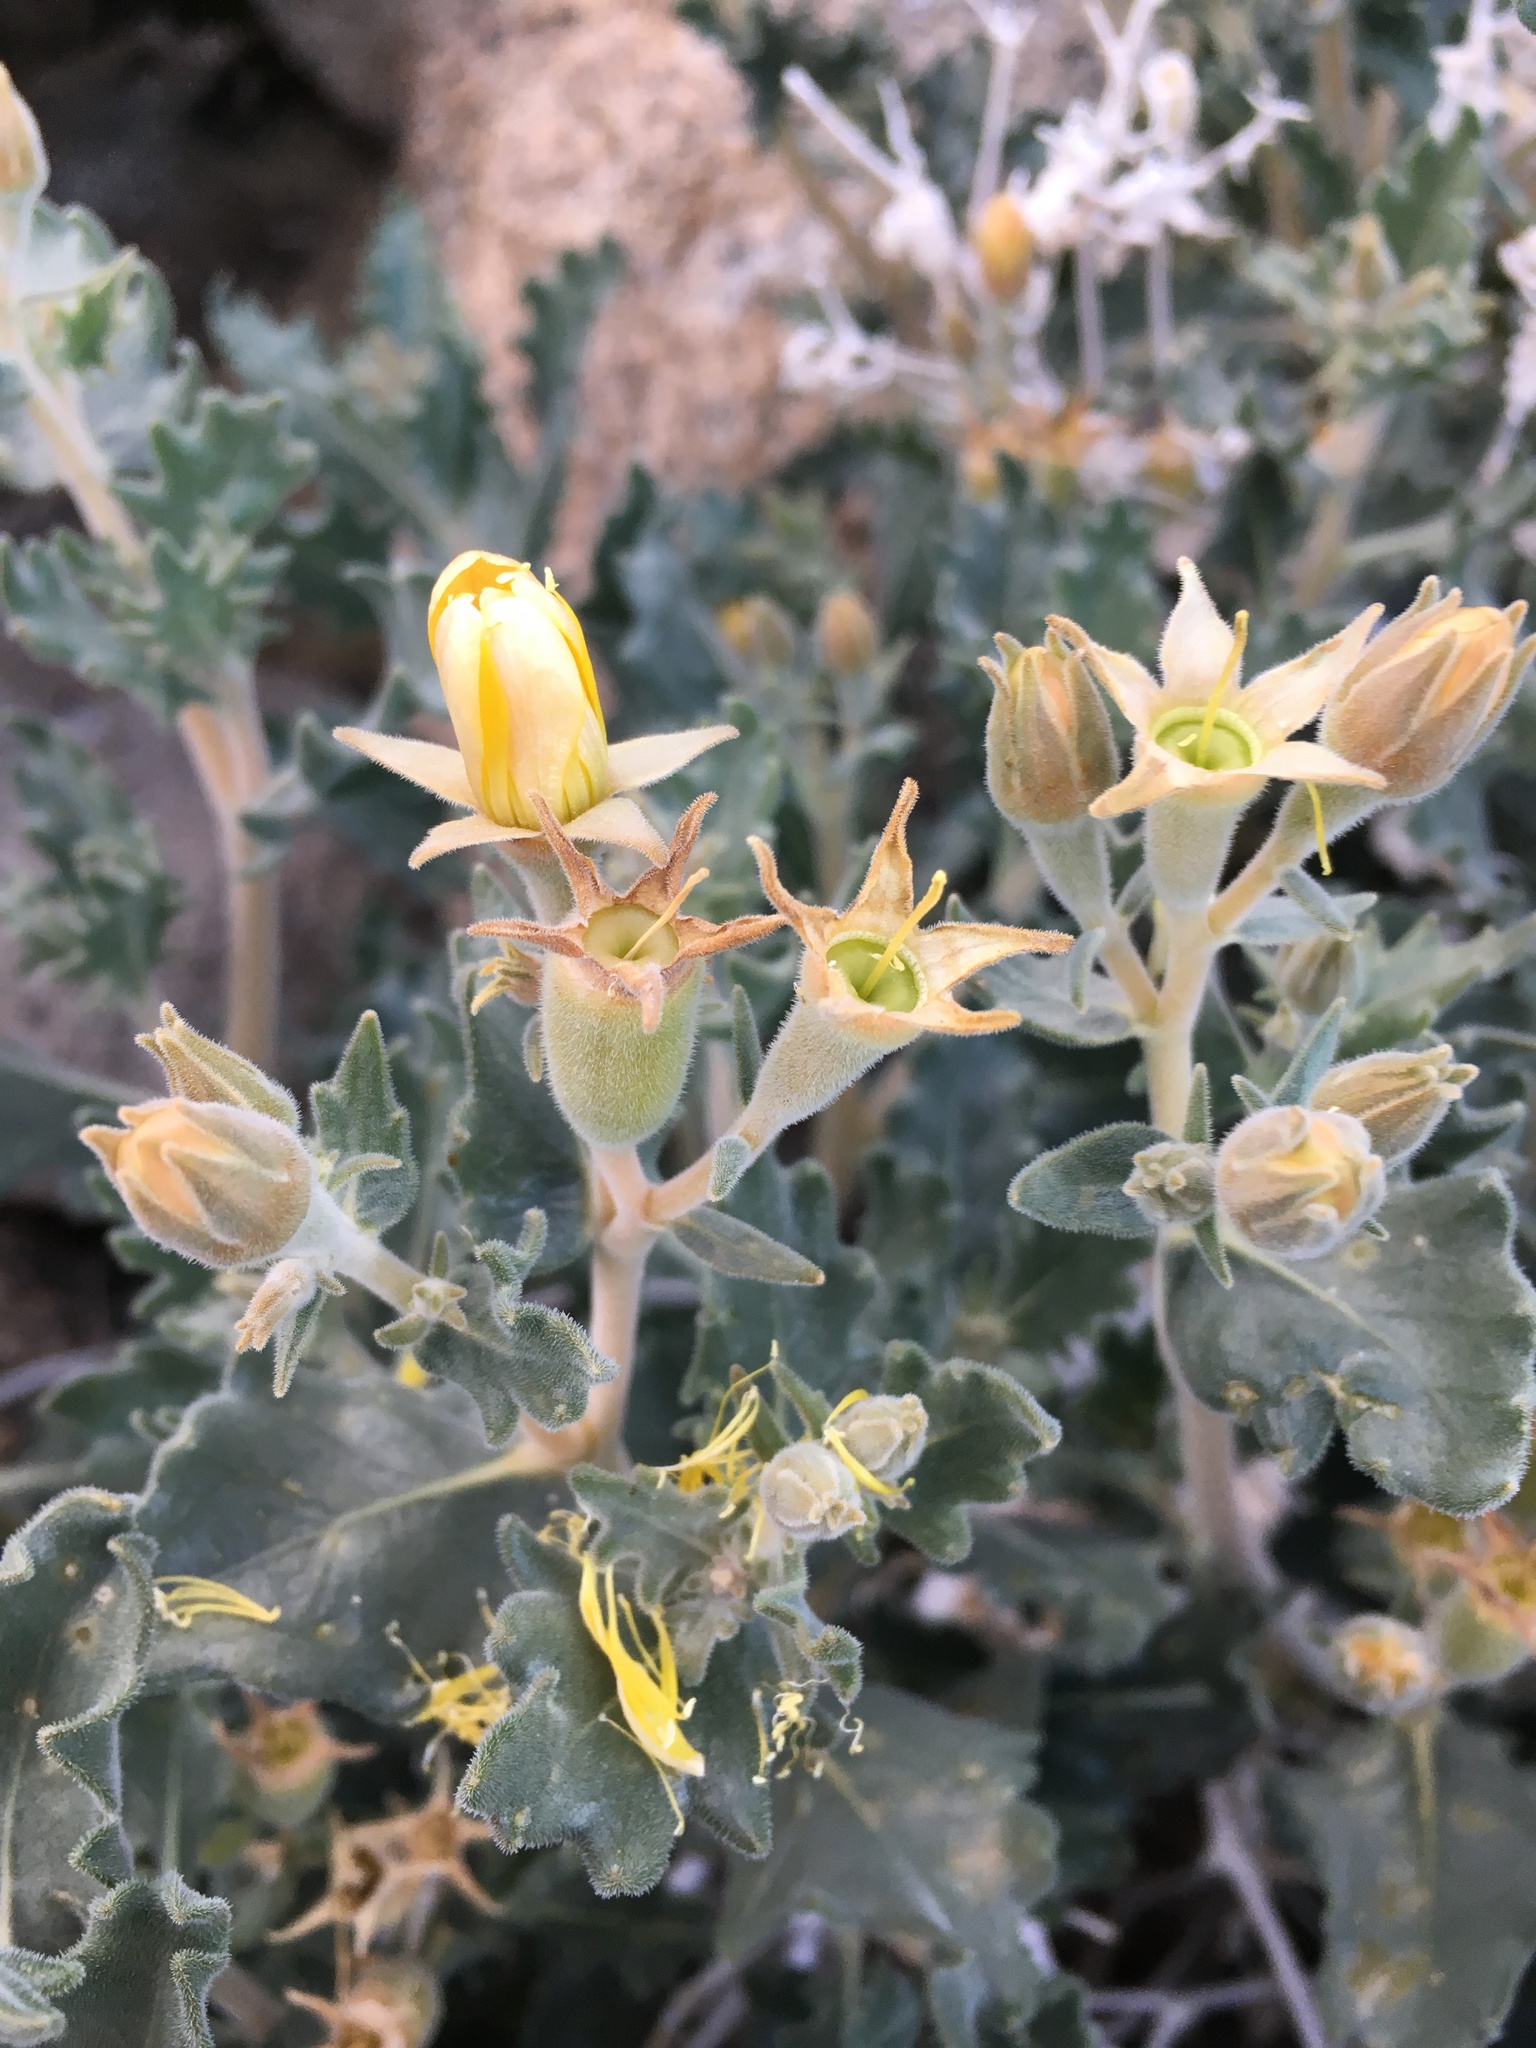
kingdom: Plantae
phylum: Tracheophyta
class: Magnoliopsida
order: Cornales
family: Loasaceae
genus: Mentzelia
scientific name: Mentzelia puberula
